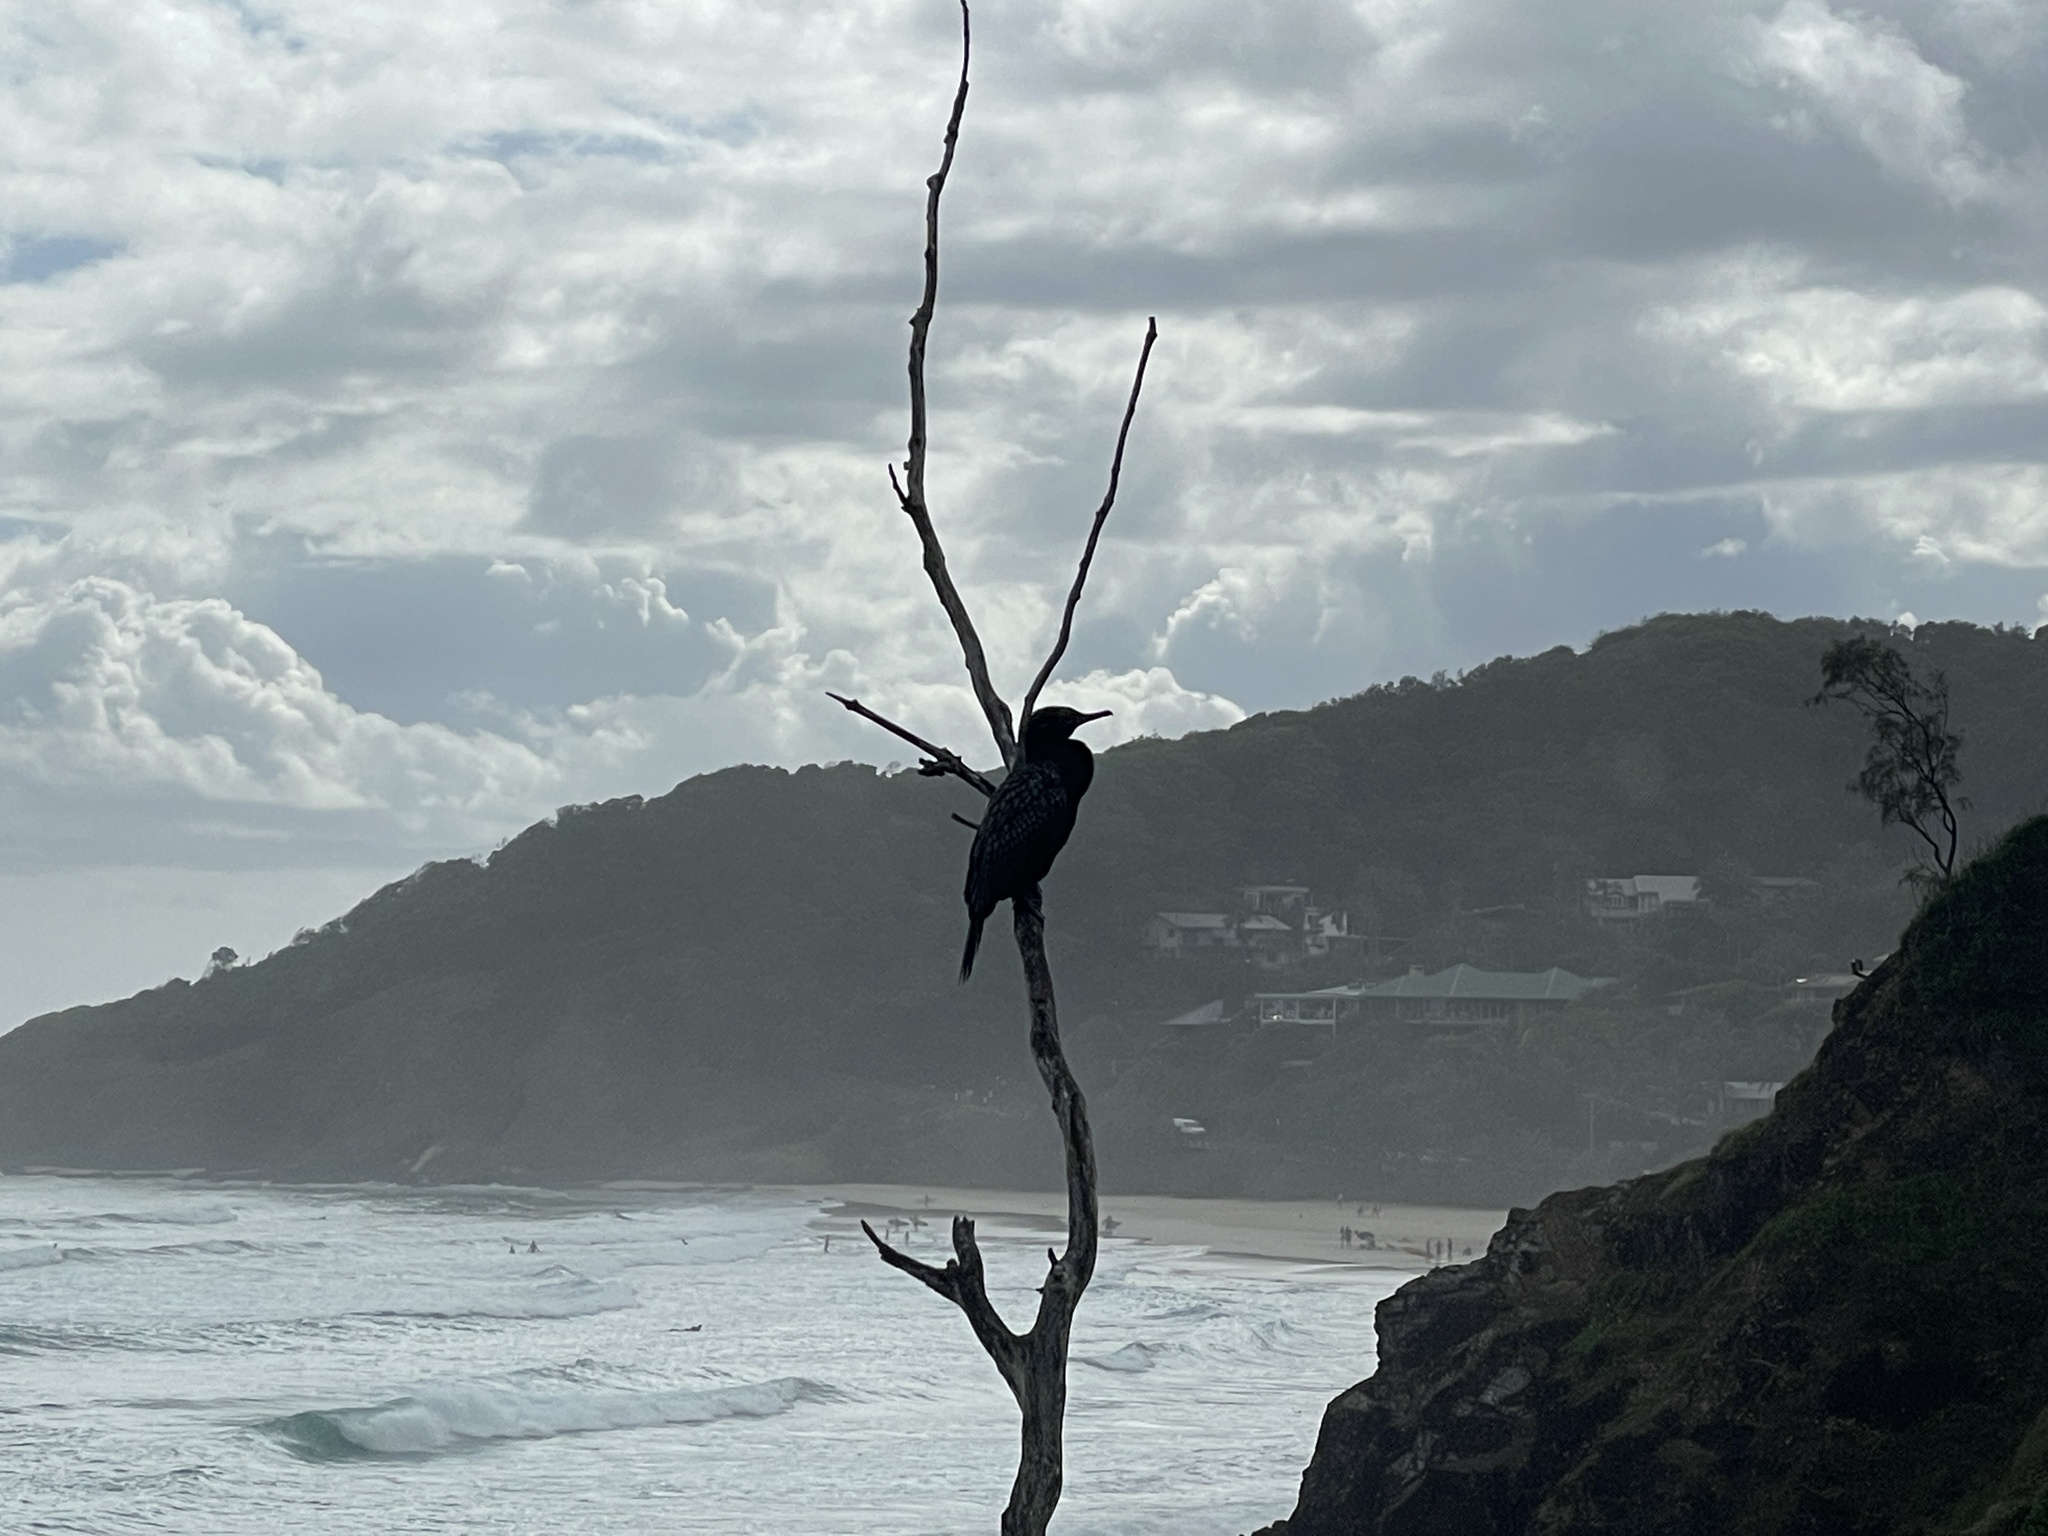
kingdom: Animalia
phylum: Chordata
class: Aves
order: Suliformes
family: Phalacrocoracidae
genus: Phalacrocorax
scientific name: Phalacrocorax sulcirostris
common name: Little black cormorant
